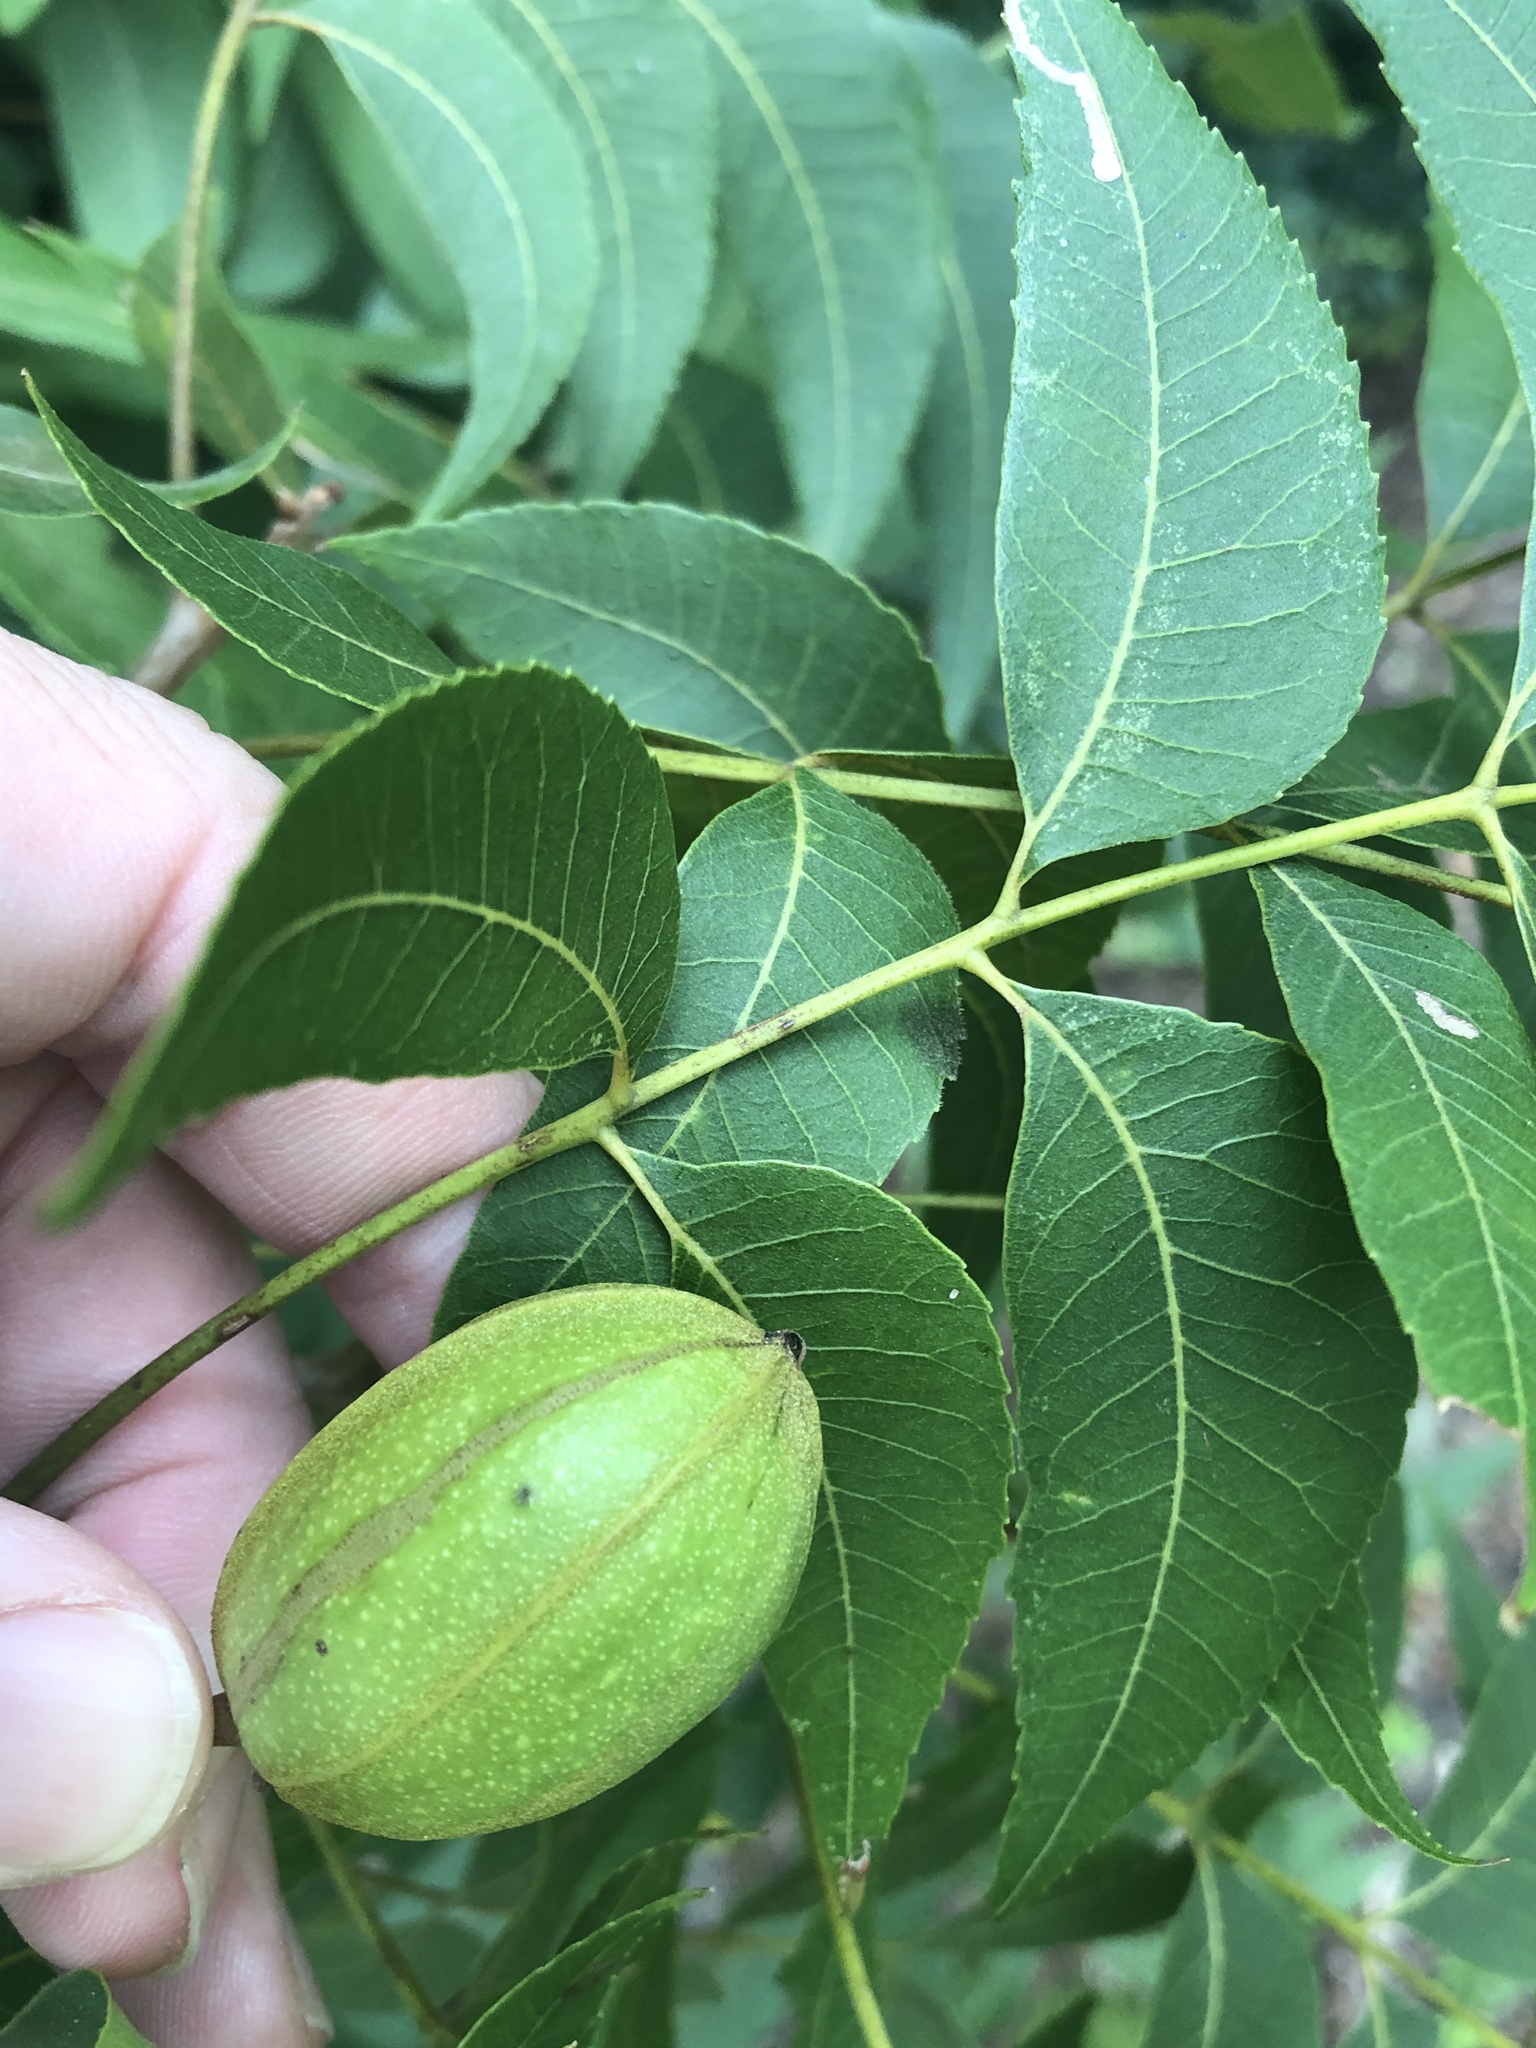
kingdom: Plantae
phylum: Tracheophyta
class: Magnoliopsida
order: Fagales
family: Juglandaceae
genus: Carya
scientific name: Carya illinoinensis
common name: Pecan
